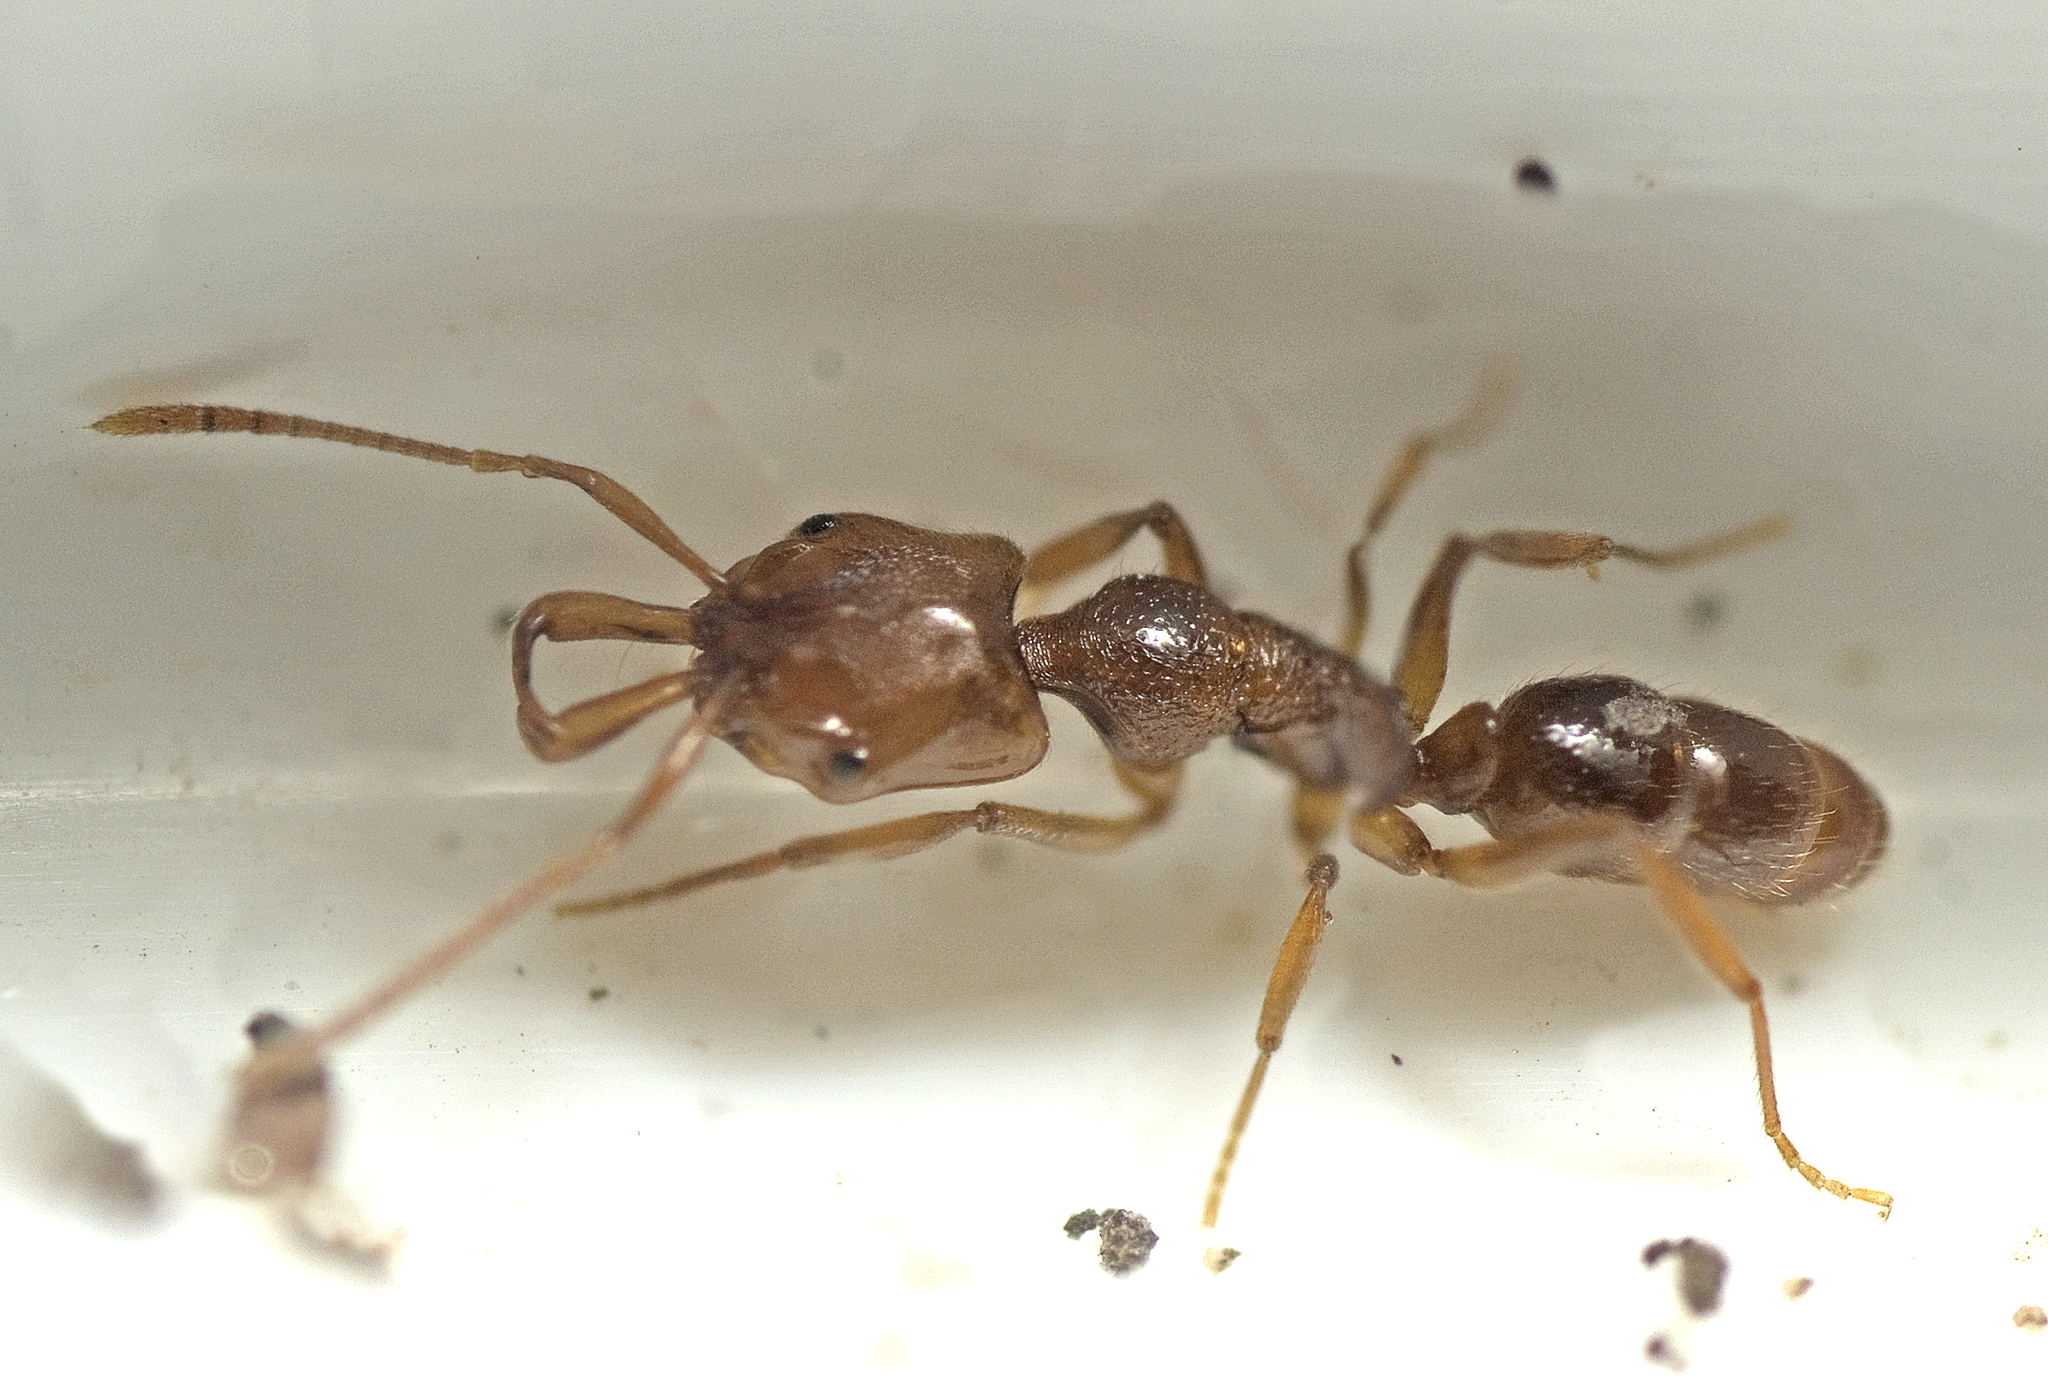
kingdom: Animalia
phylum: Arthropoda
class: Insecta
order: Hymenoptera
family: Formicidae
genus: Anochetus
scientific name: Anochetus graeffei
